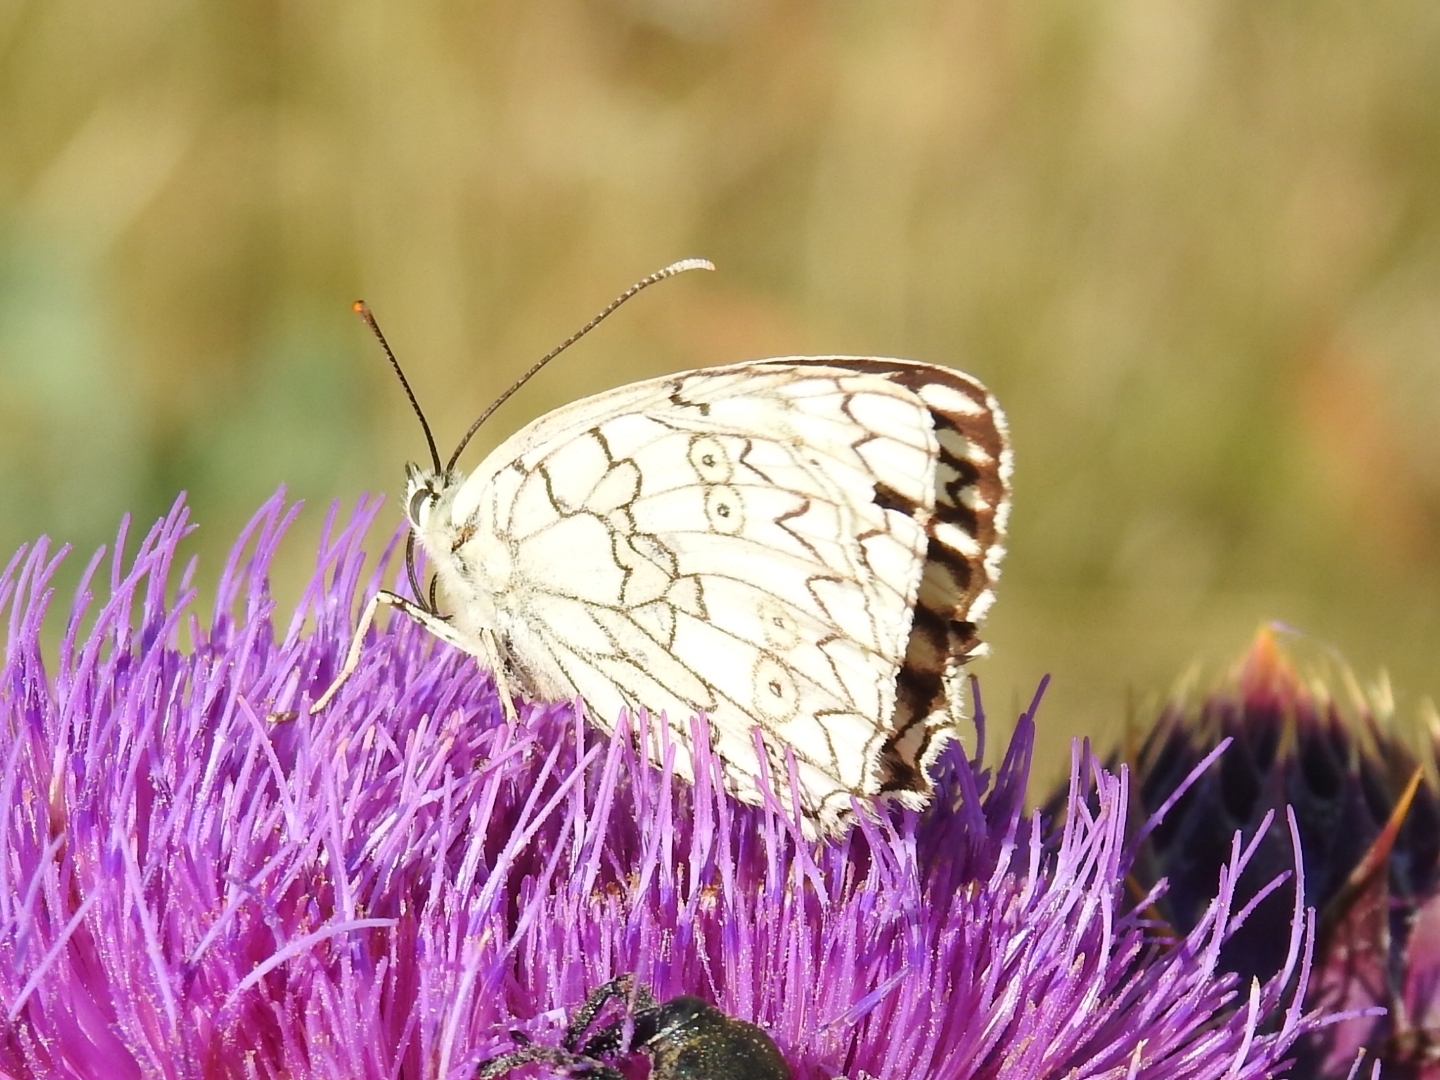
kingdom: Animalia
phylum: Arthropoda
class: Insecta
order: Lepidoptera
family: Nymphalidae
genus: Melanargia
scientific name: Melanargia japygia
